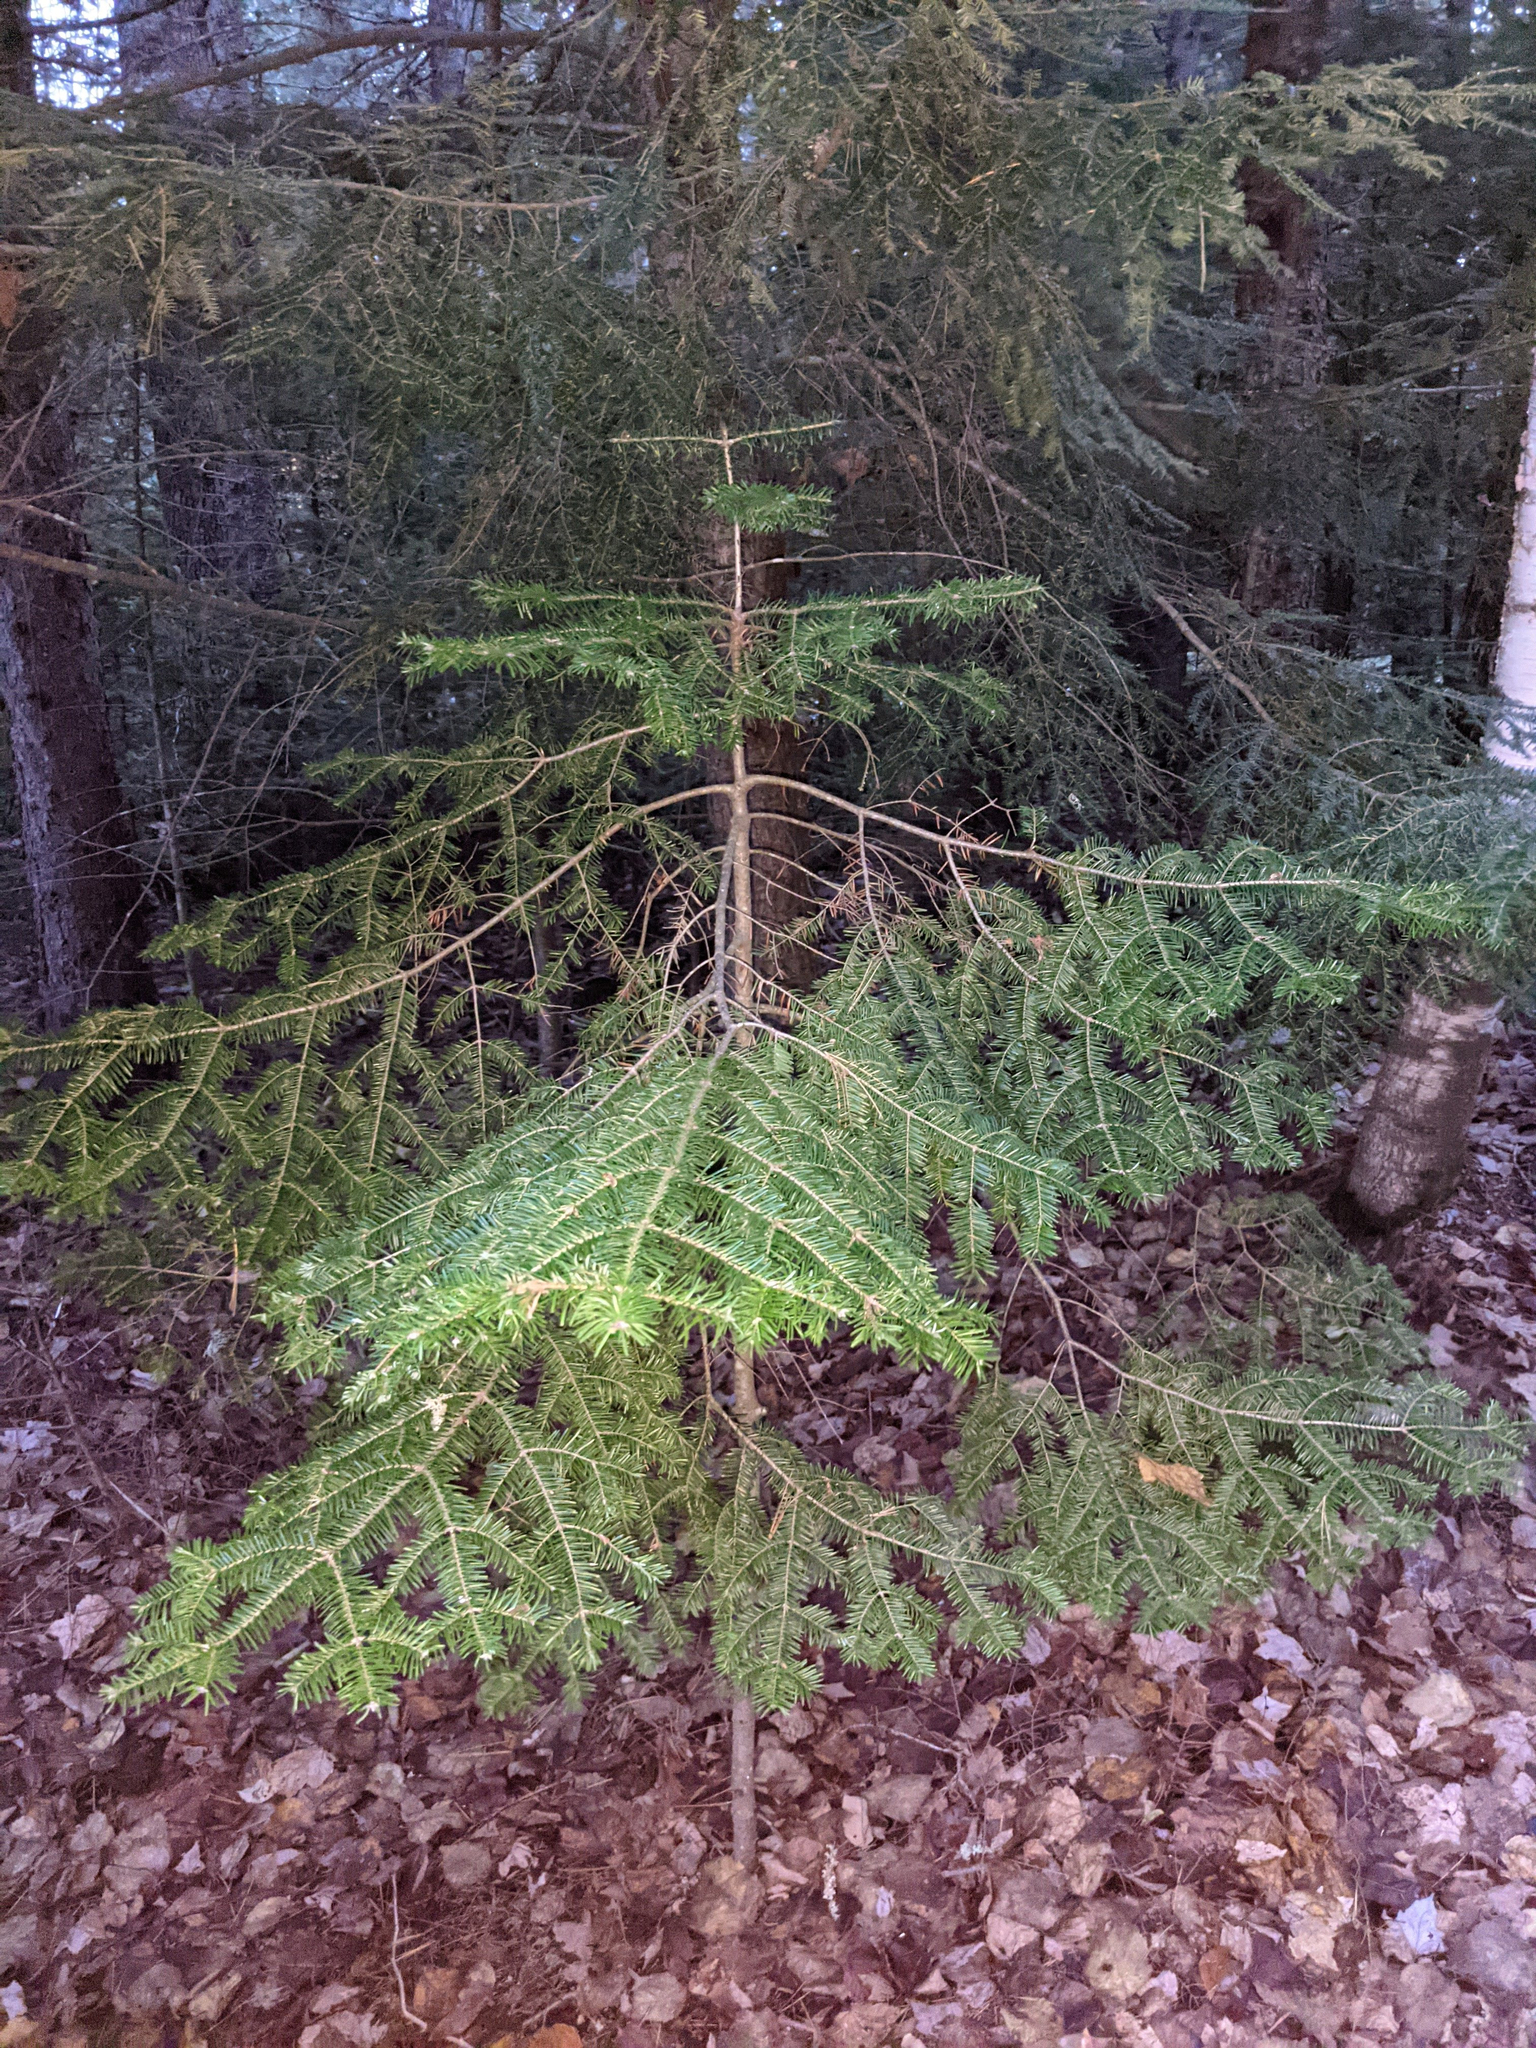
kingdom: Plantae
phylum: Tracheophyta
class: Pinopsida
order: Pinales
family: Pinaceae
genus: Abies
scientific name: Abies balsamea
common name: Balsam fir
